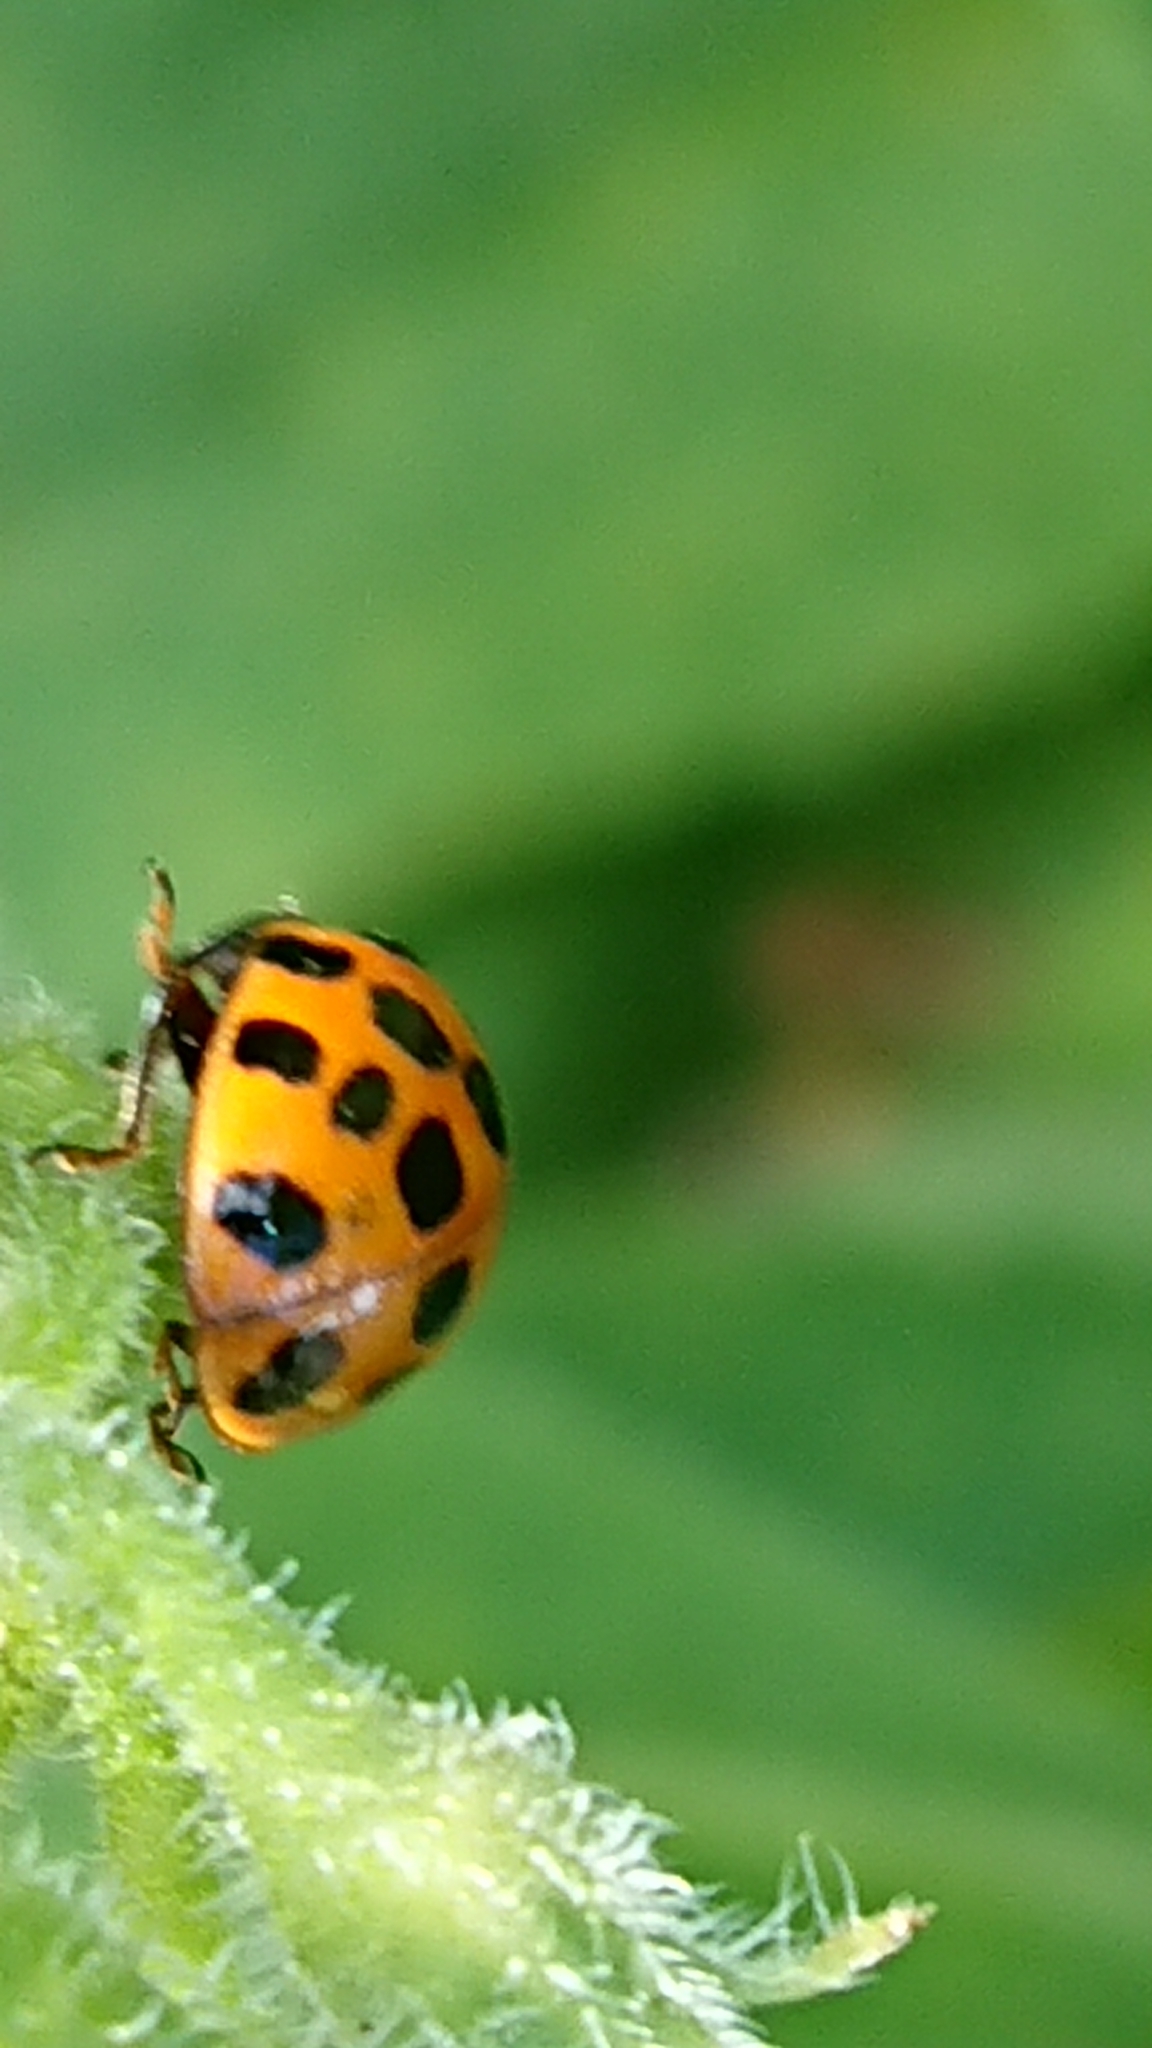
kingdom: Animalia
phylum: Arthropoda
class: Insecta
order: Coleoptera
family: Coccinellidae
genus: Harmonia
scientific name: Harmonia axyridis
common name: Harlequin ladybird
